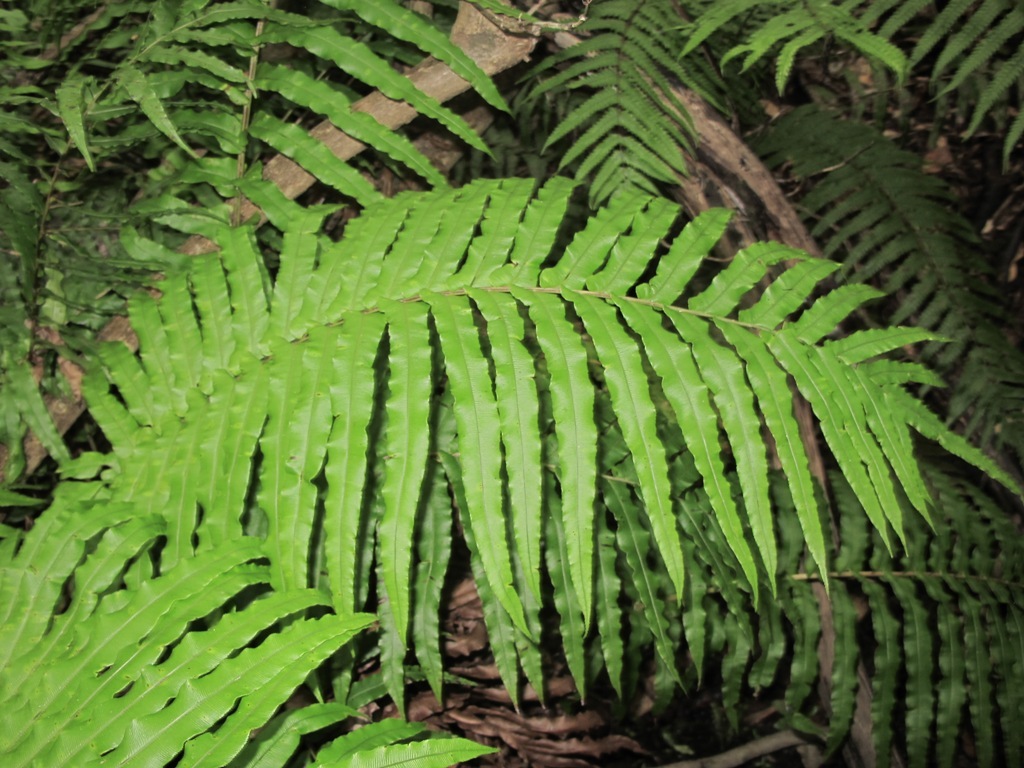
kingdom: Plantae
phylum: Tracheophyta
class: Polypodiopsida
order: Polypodiales
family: Blechnaceae
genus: Parablechnum
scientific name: Parablechnum novae-zelandiae
